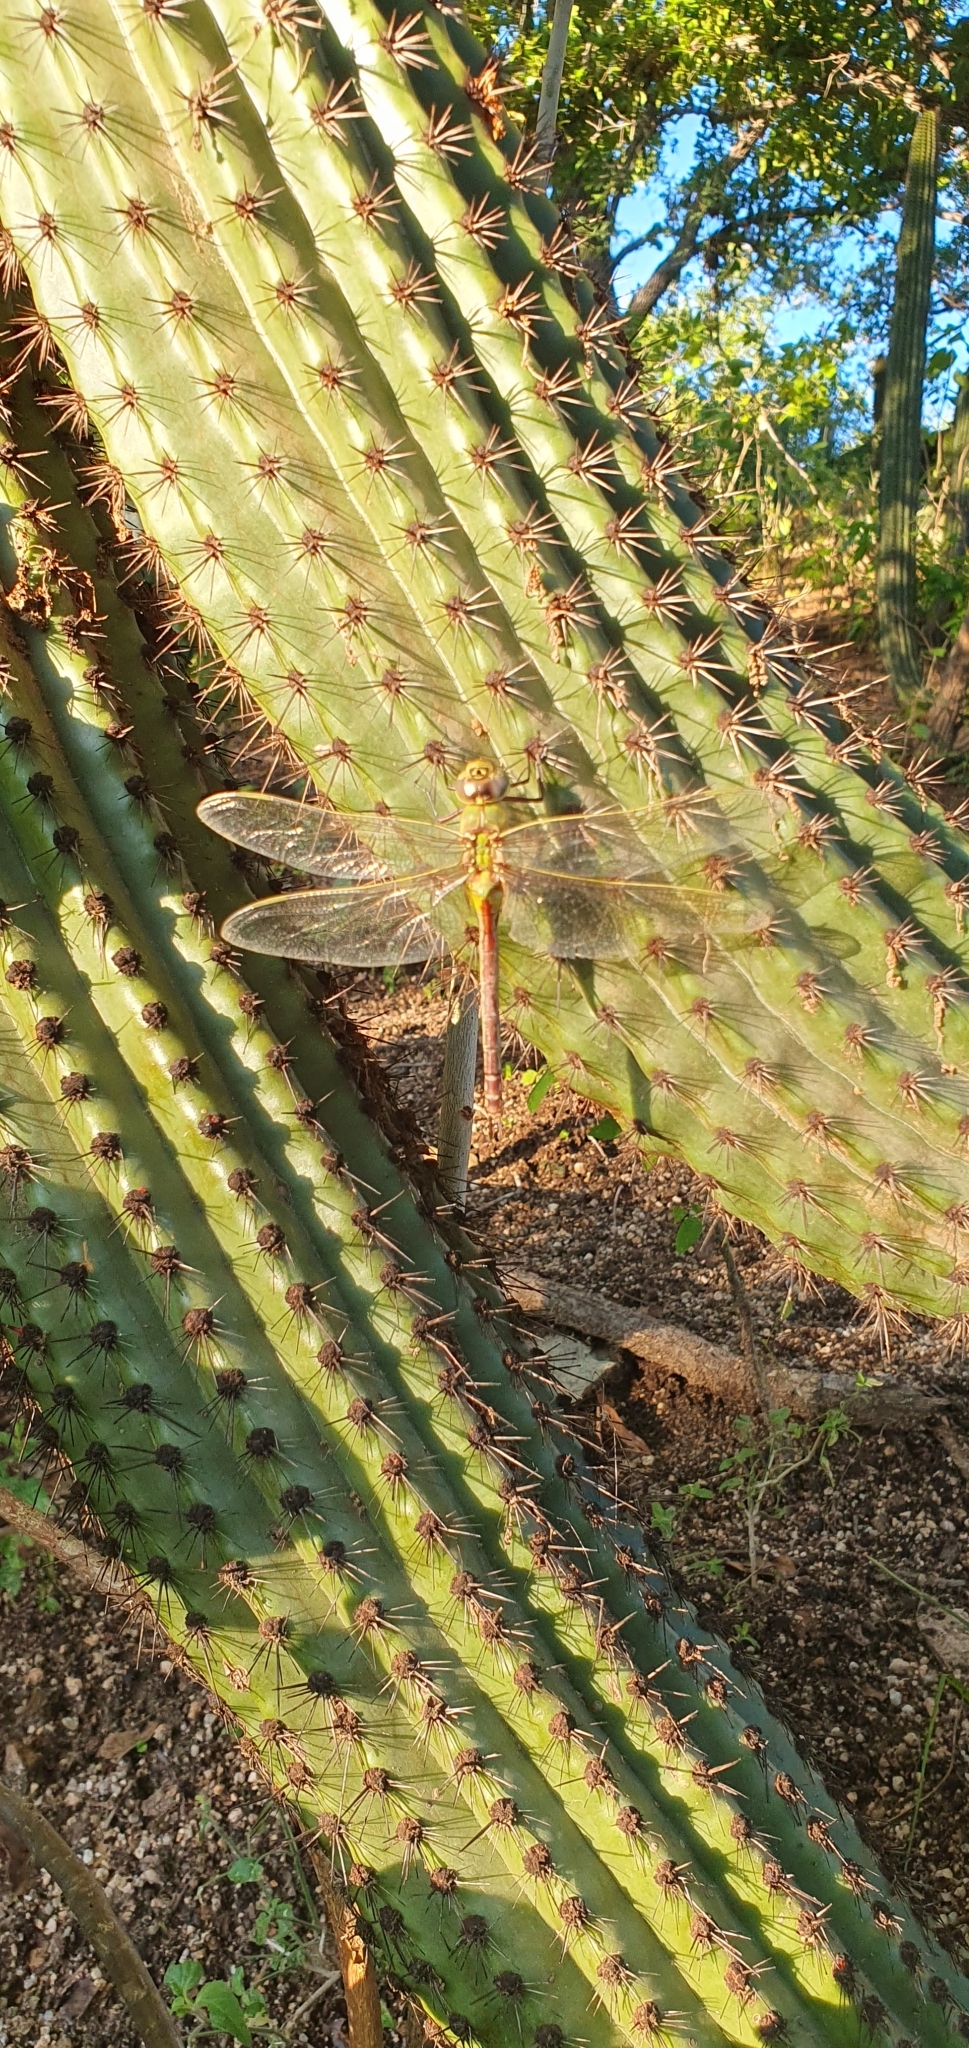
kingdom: Animalia
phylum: Arthropoda
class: Insecta
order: Odonata
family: Aeshnidae
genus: Anax
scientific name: Anax junius
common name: Common green darner
